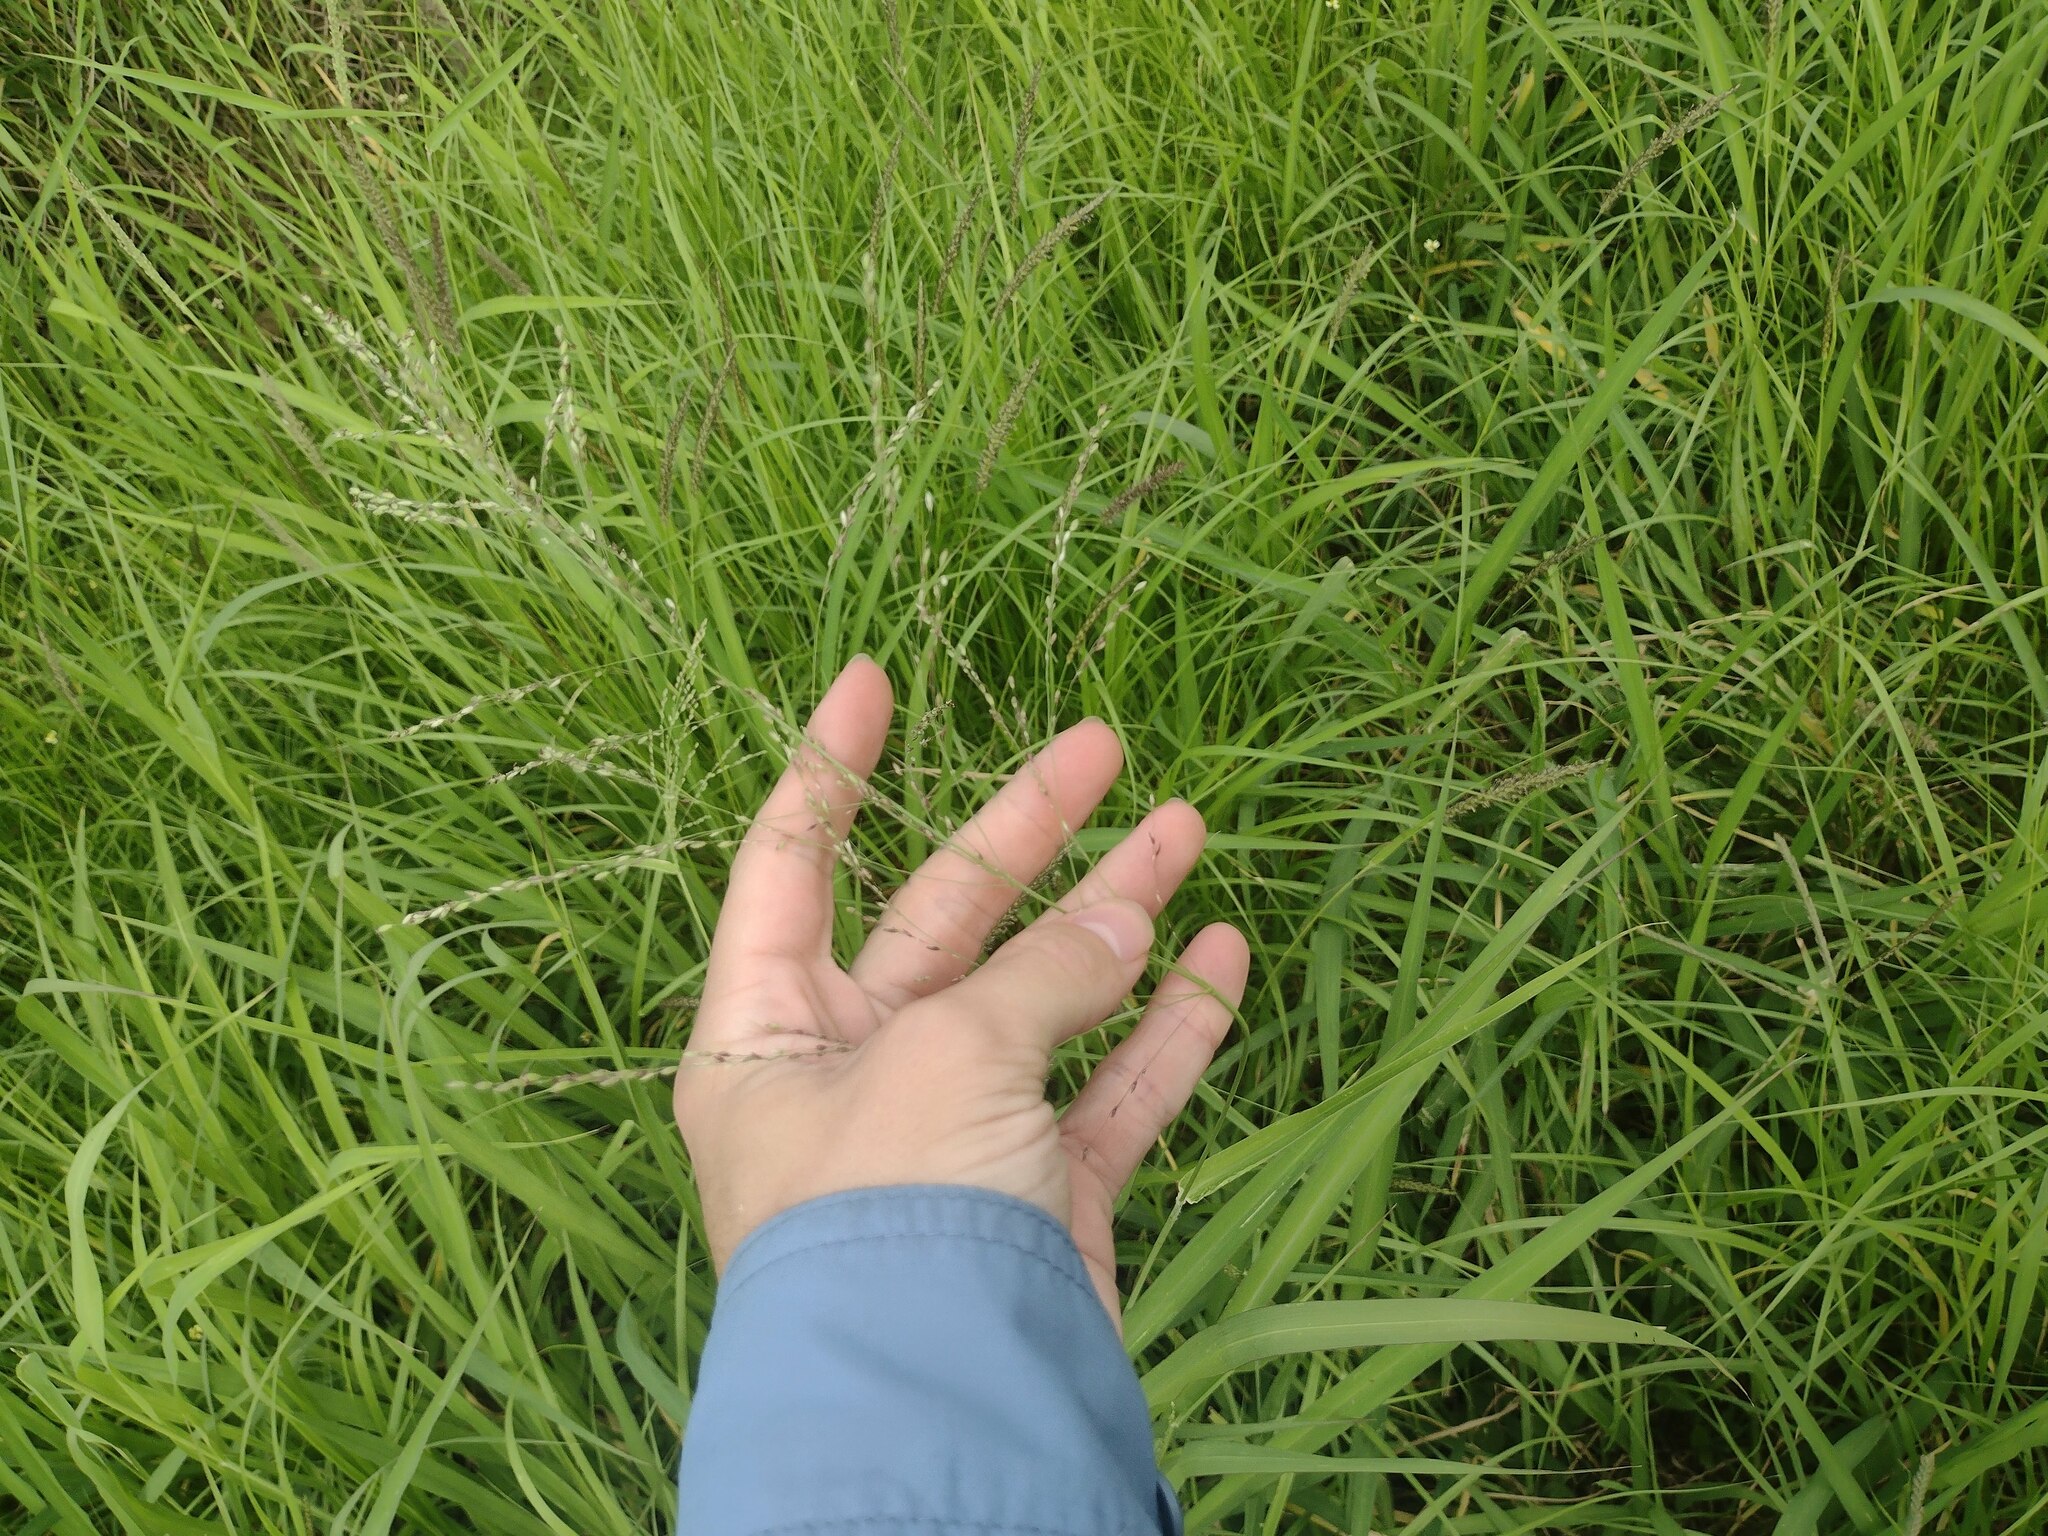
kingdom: Plantae
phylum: Tracheophyta
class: Liliopsida
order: Poales
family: Poaceae
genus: Megathyrsus
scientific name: Megathyrsus maximus
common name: Guineagrass
